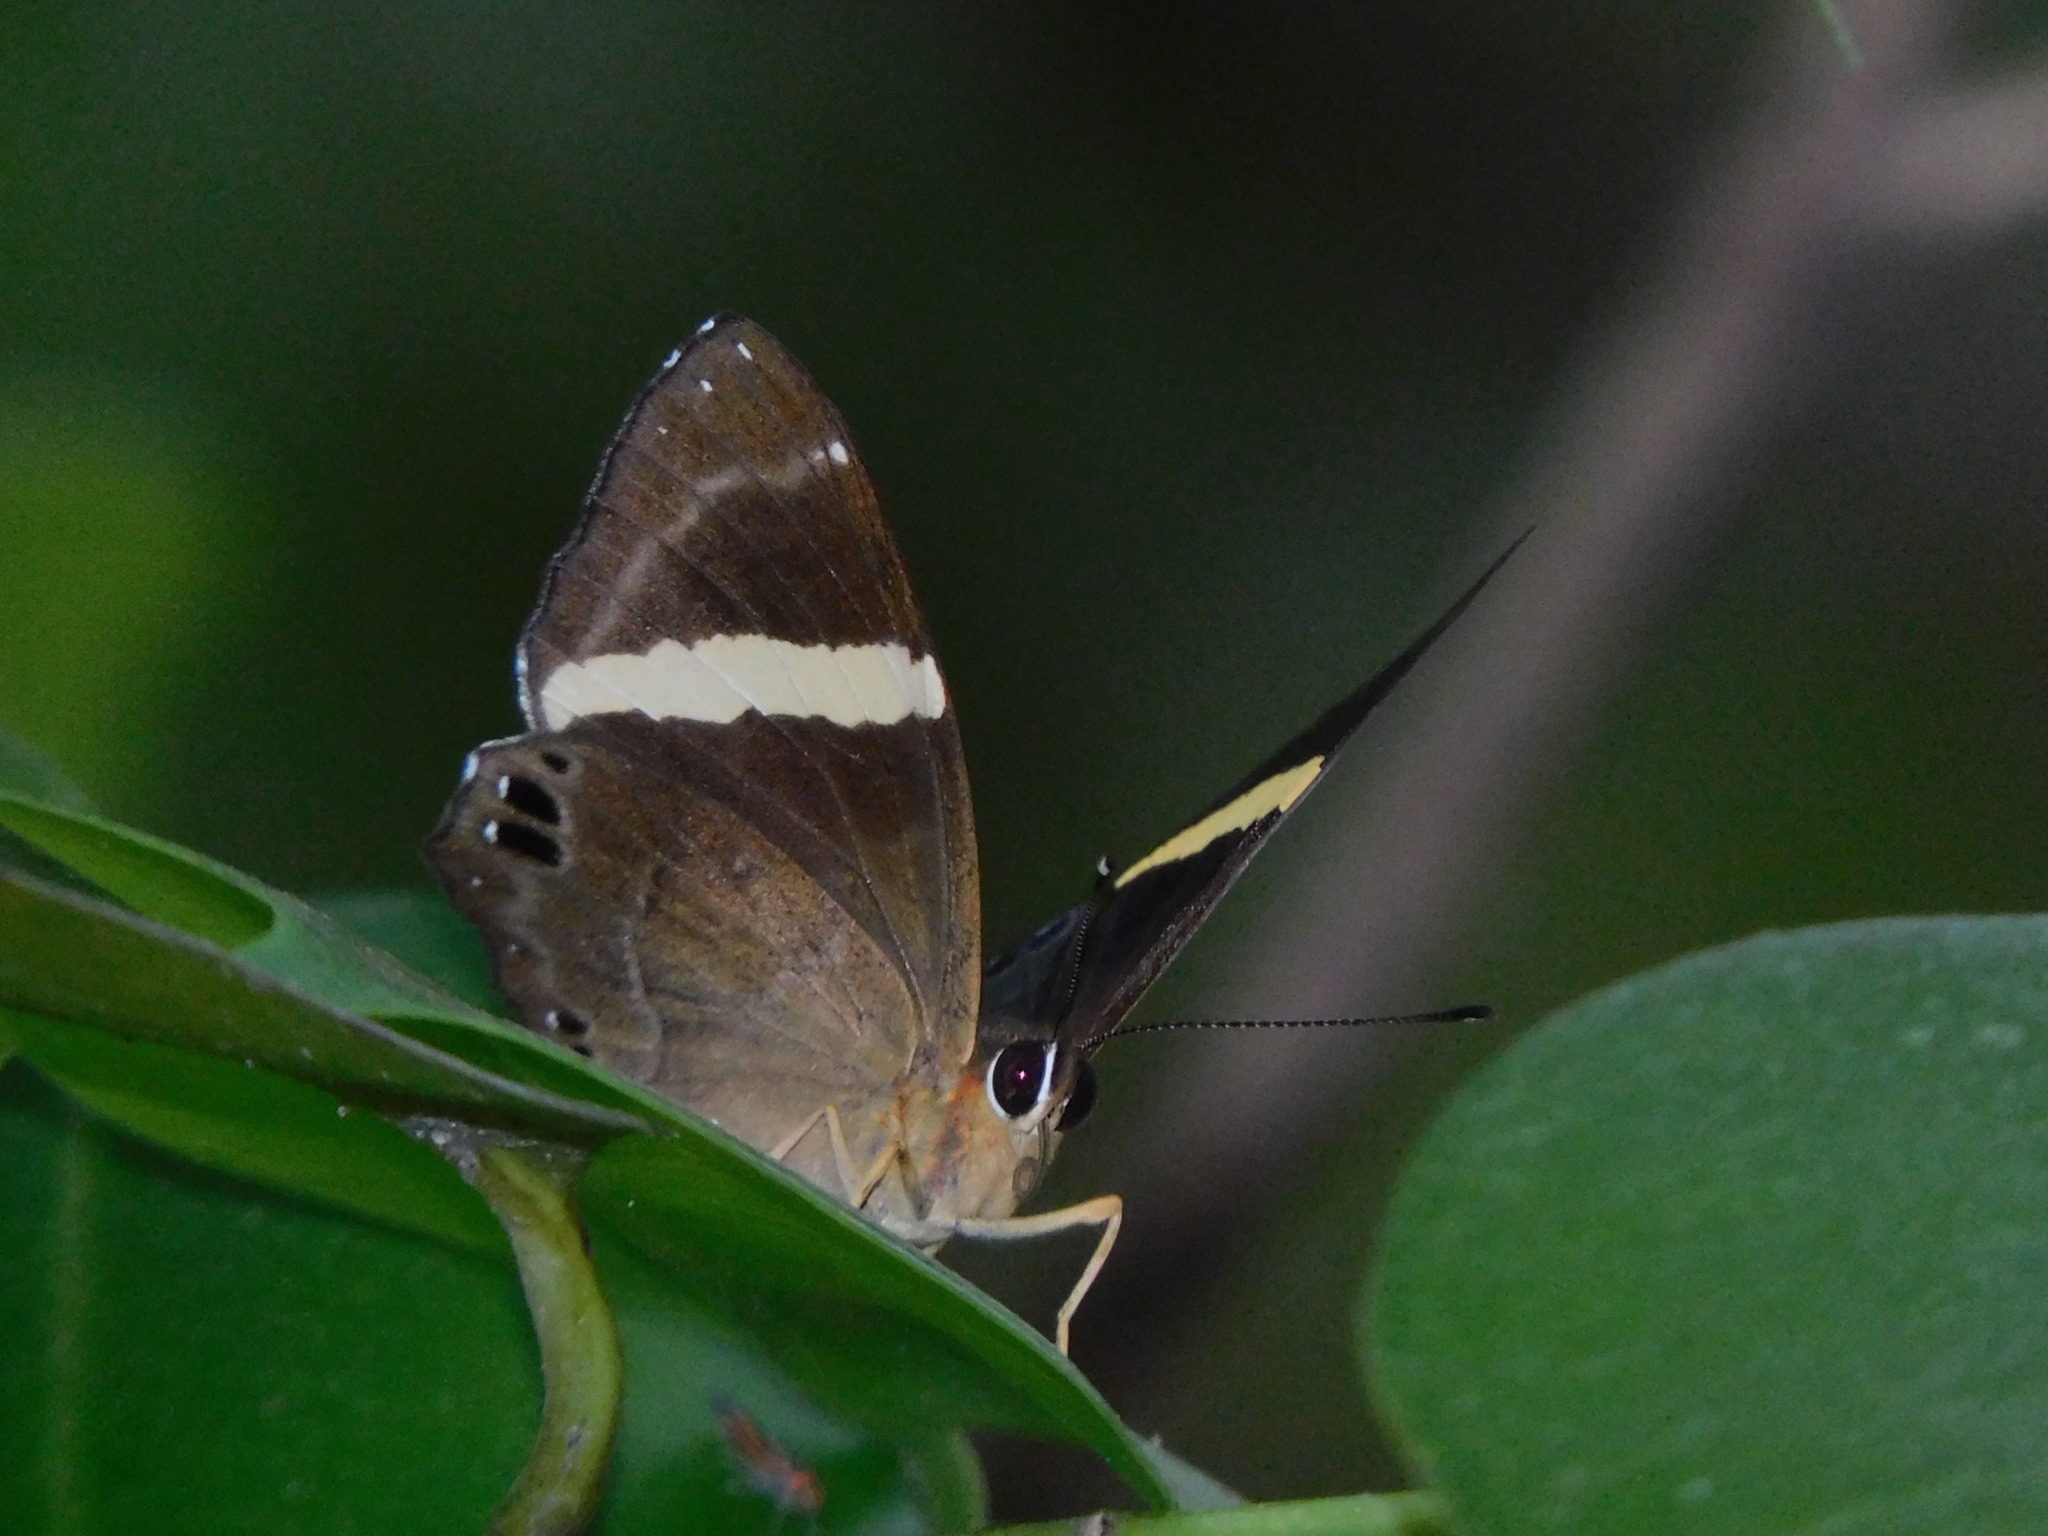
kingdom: Animalia
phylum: Arthropoda
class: Insecta
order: Lepidoptera
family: Lycaenidae
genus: Abisara
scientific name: Abisara fylla
